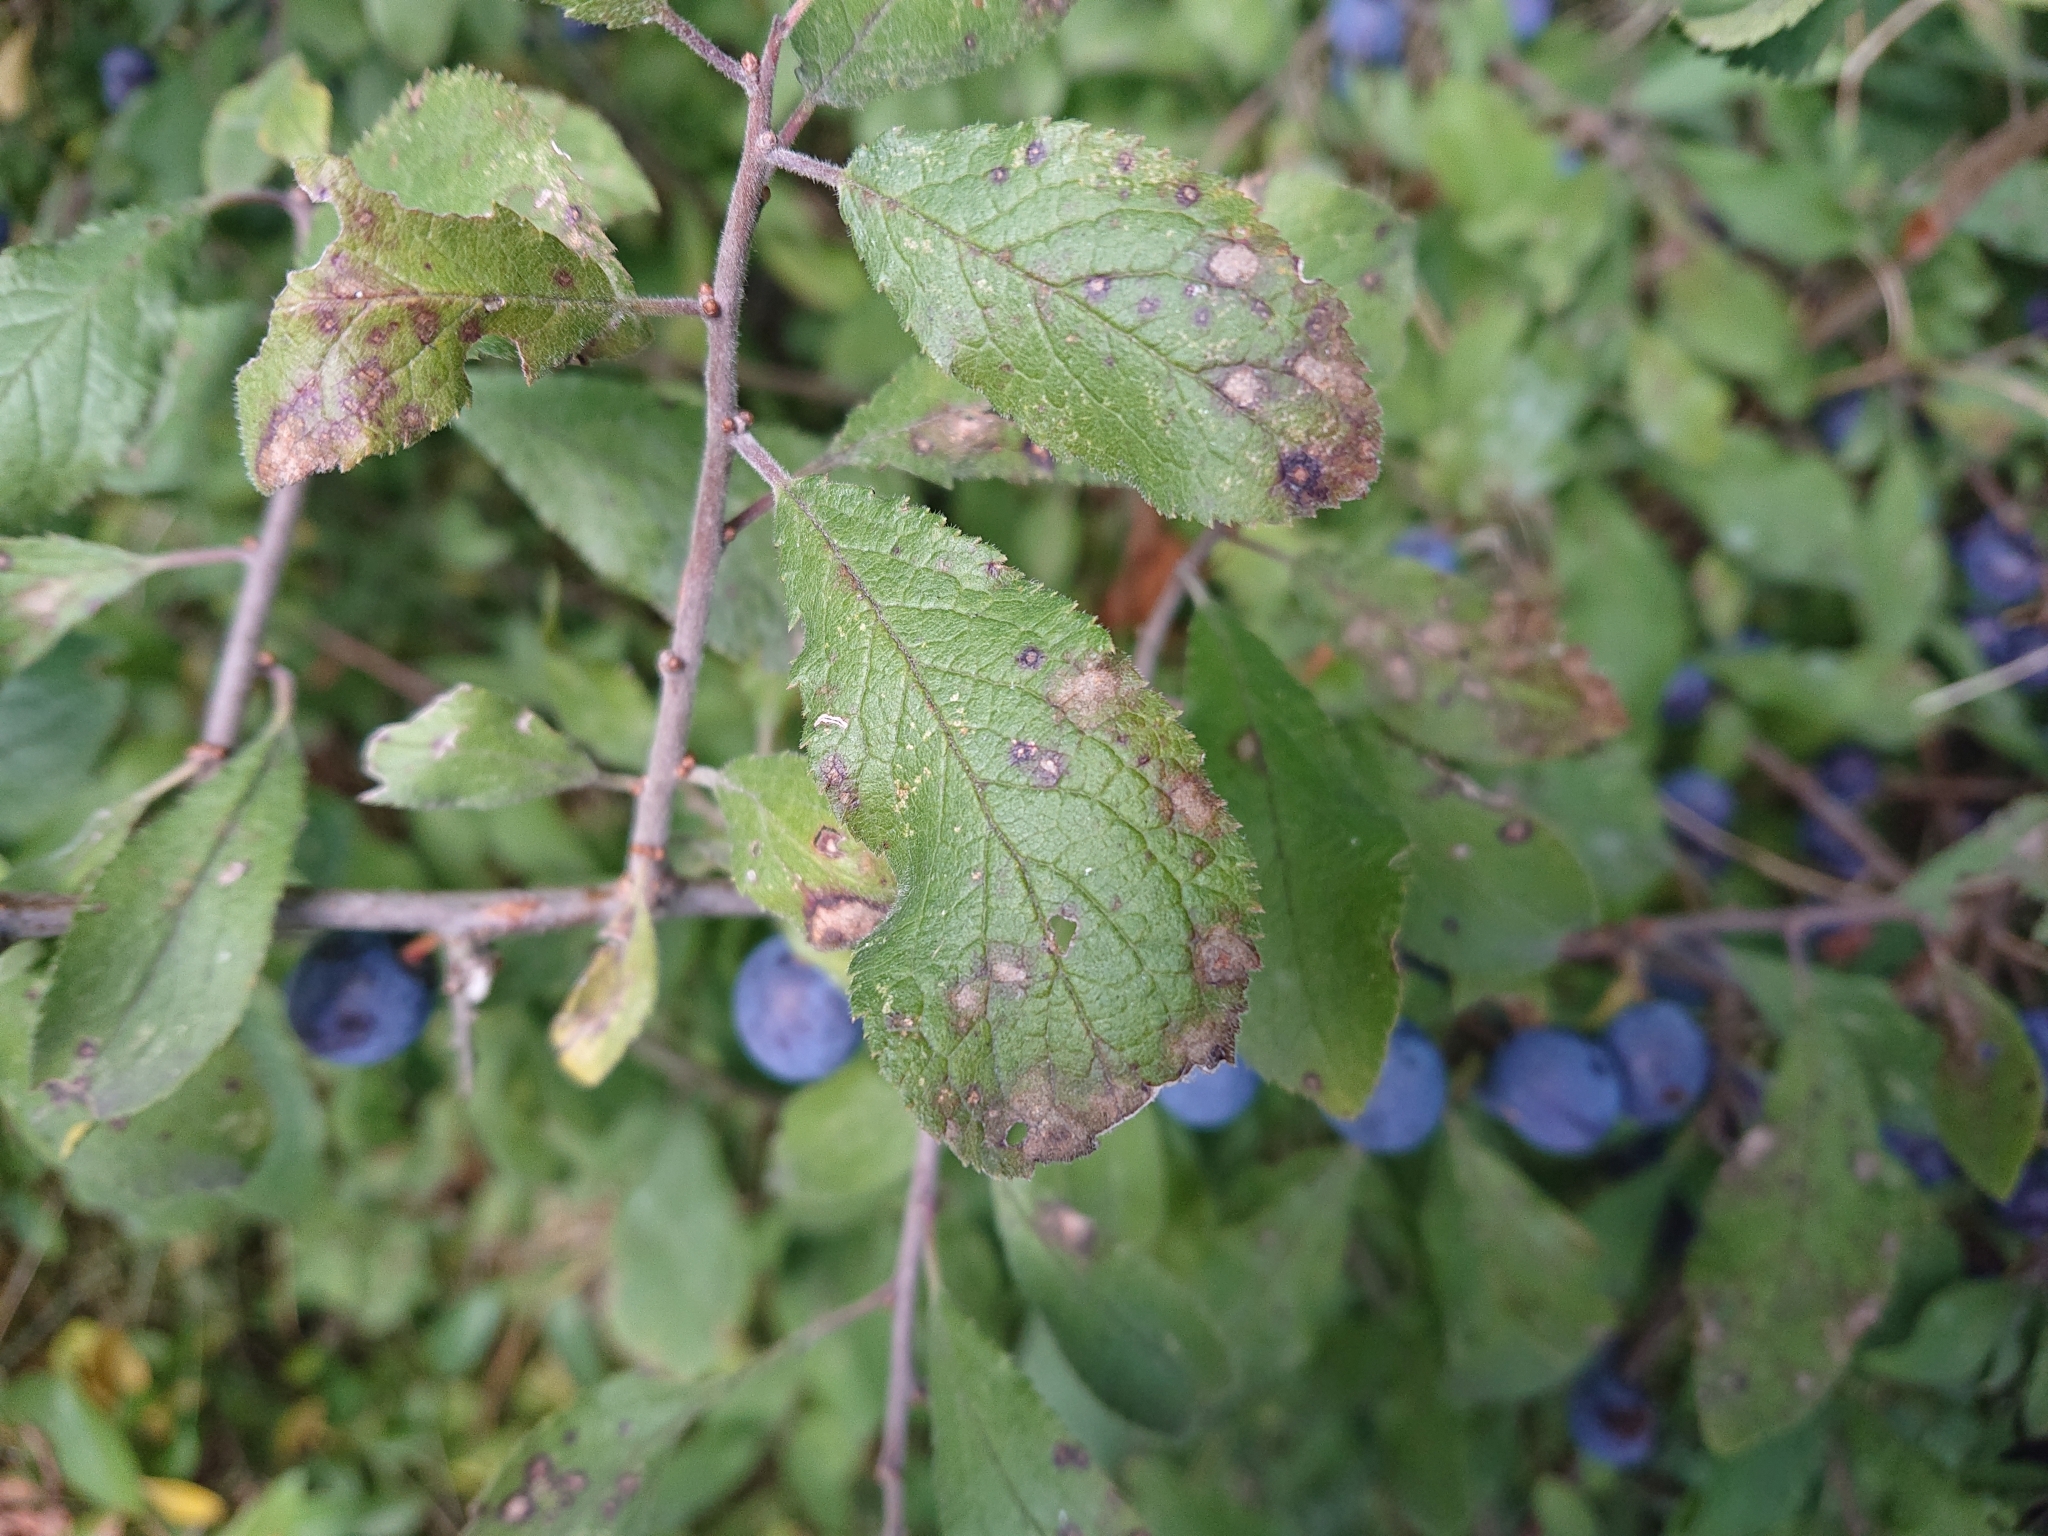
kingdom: Plantae
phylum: Tracheophyta
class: Magnoliopsida
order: Rosales
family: Rosaceae
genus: Prunus
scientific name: Prunus spinosa
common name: Blackthorn
